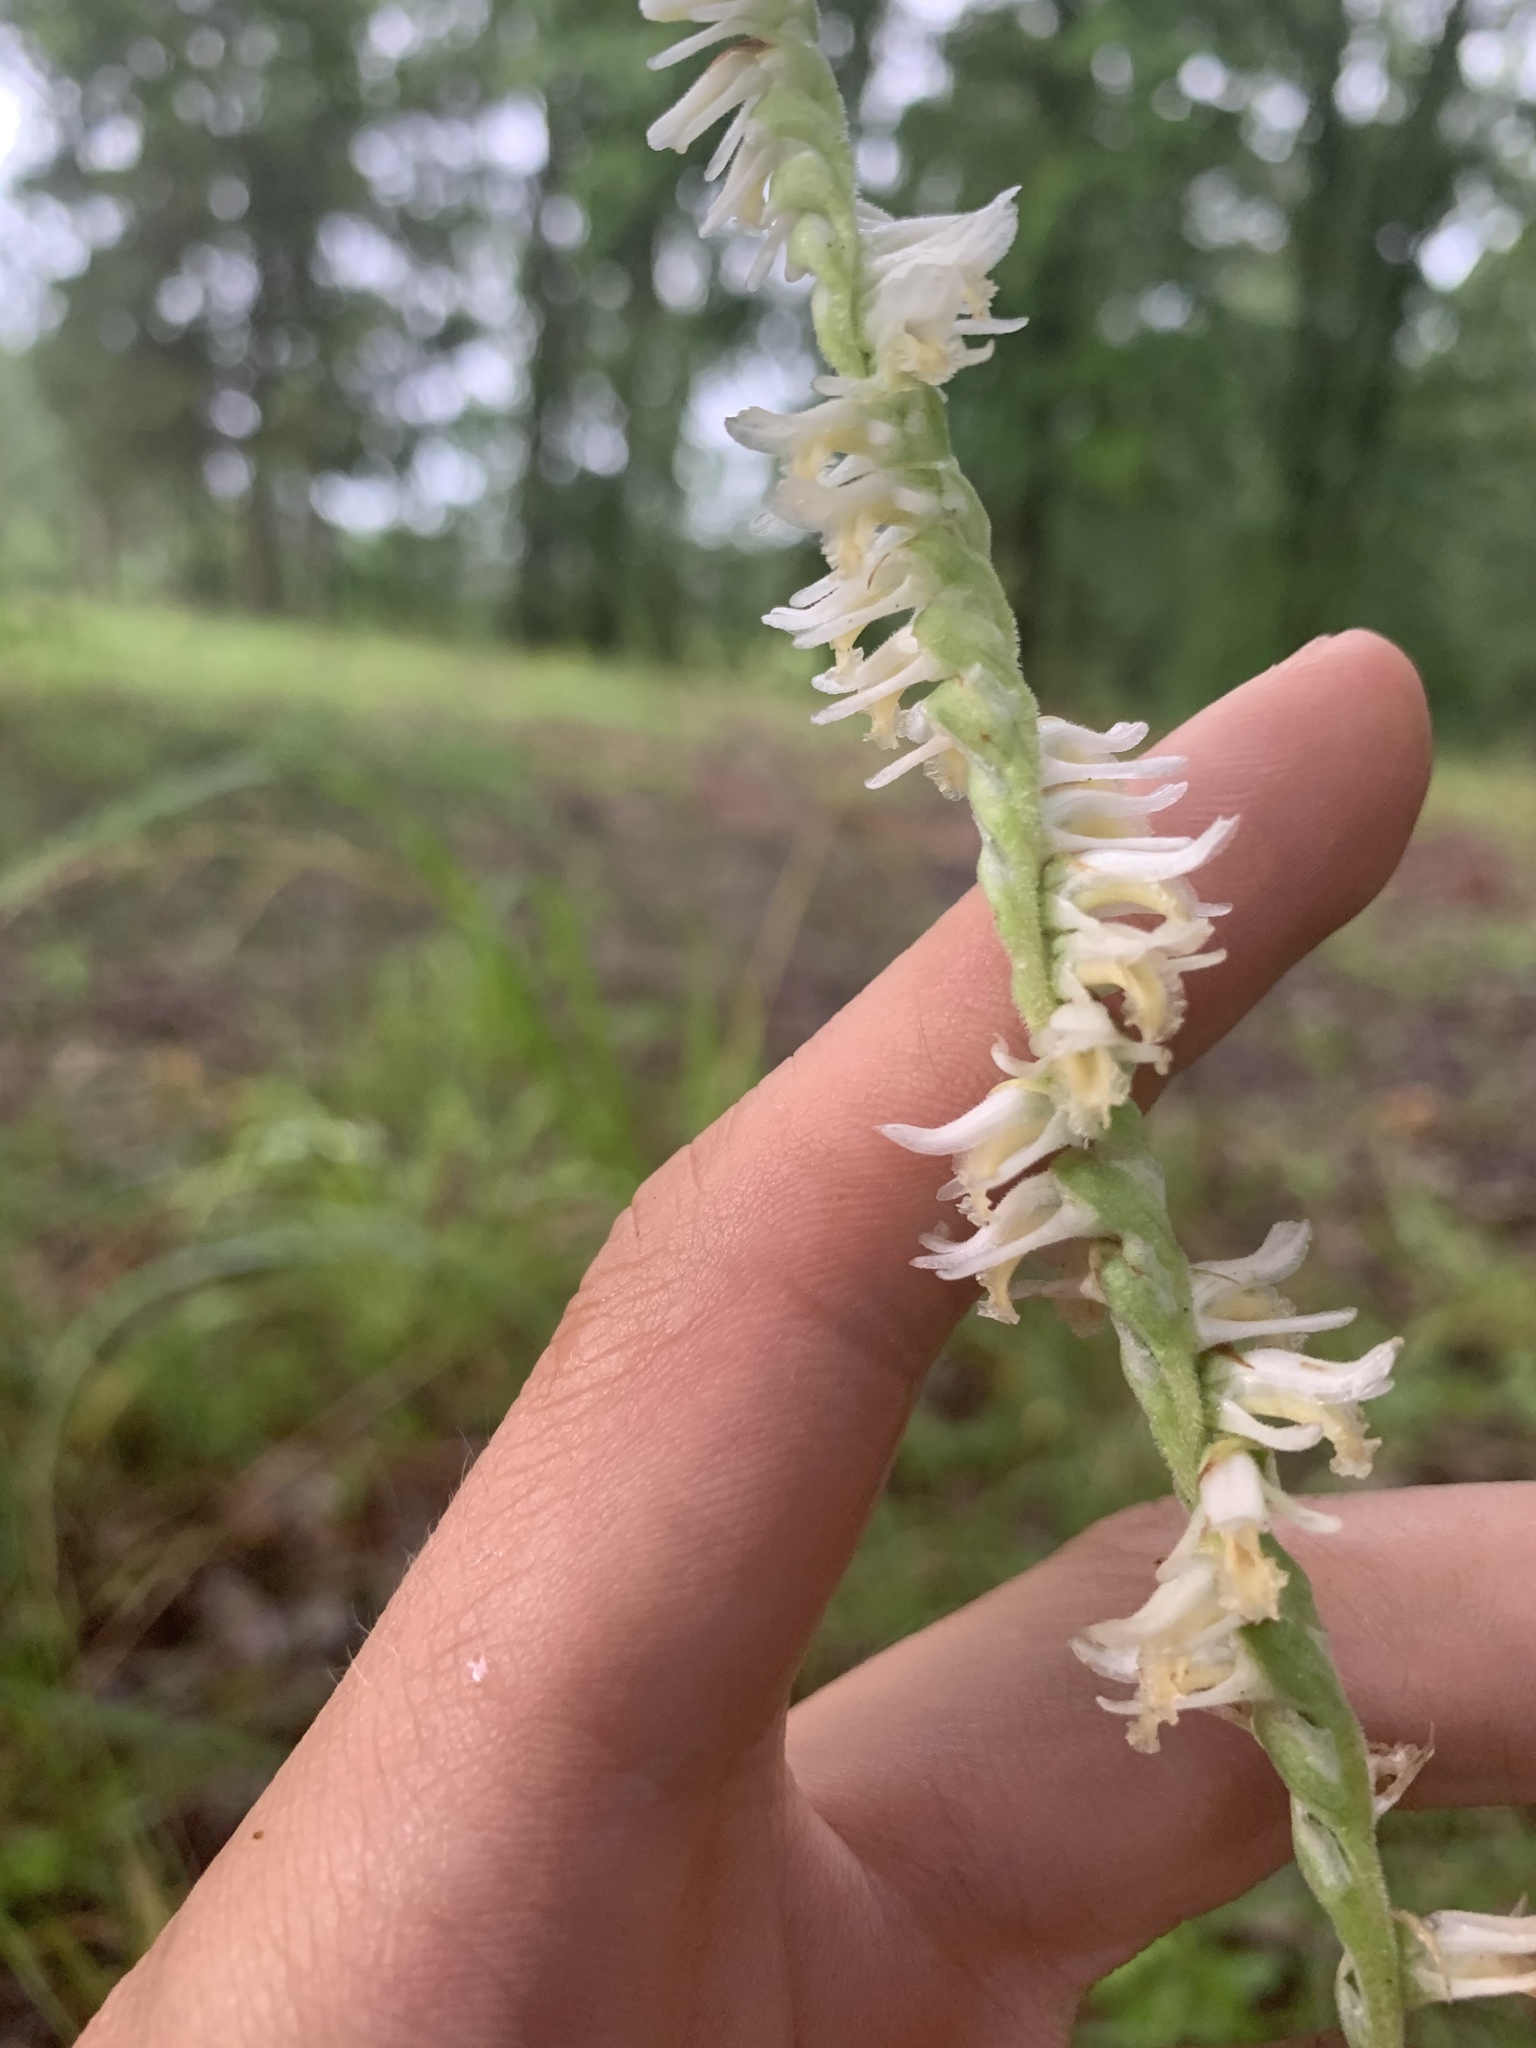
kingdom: Plantae
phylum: Tracheophyta
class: Liliopsida
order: Asparagales
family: Orchidaceae
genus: Spiranthes
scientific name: Spiranthes vernalis
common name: Spring ladies'-tresses
